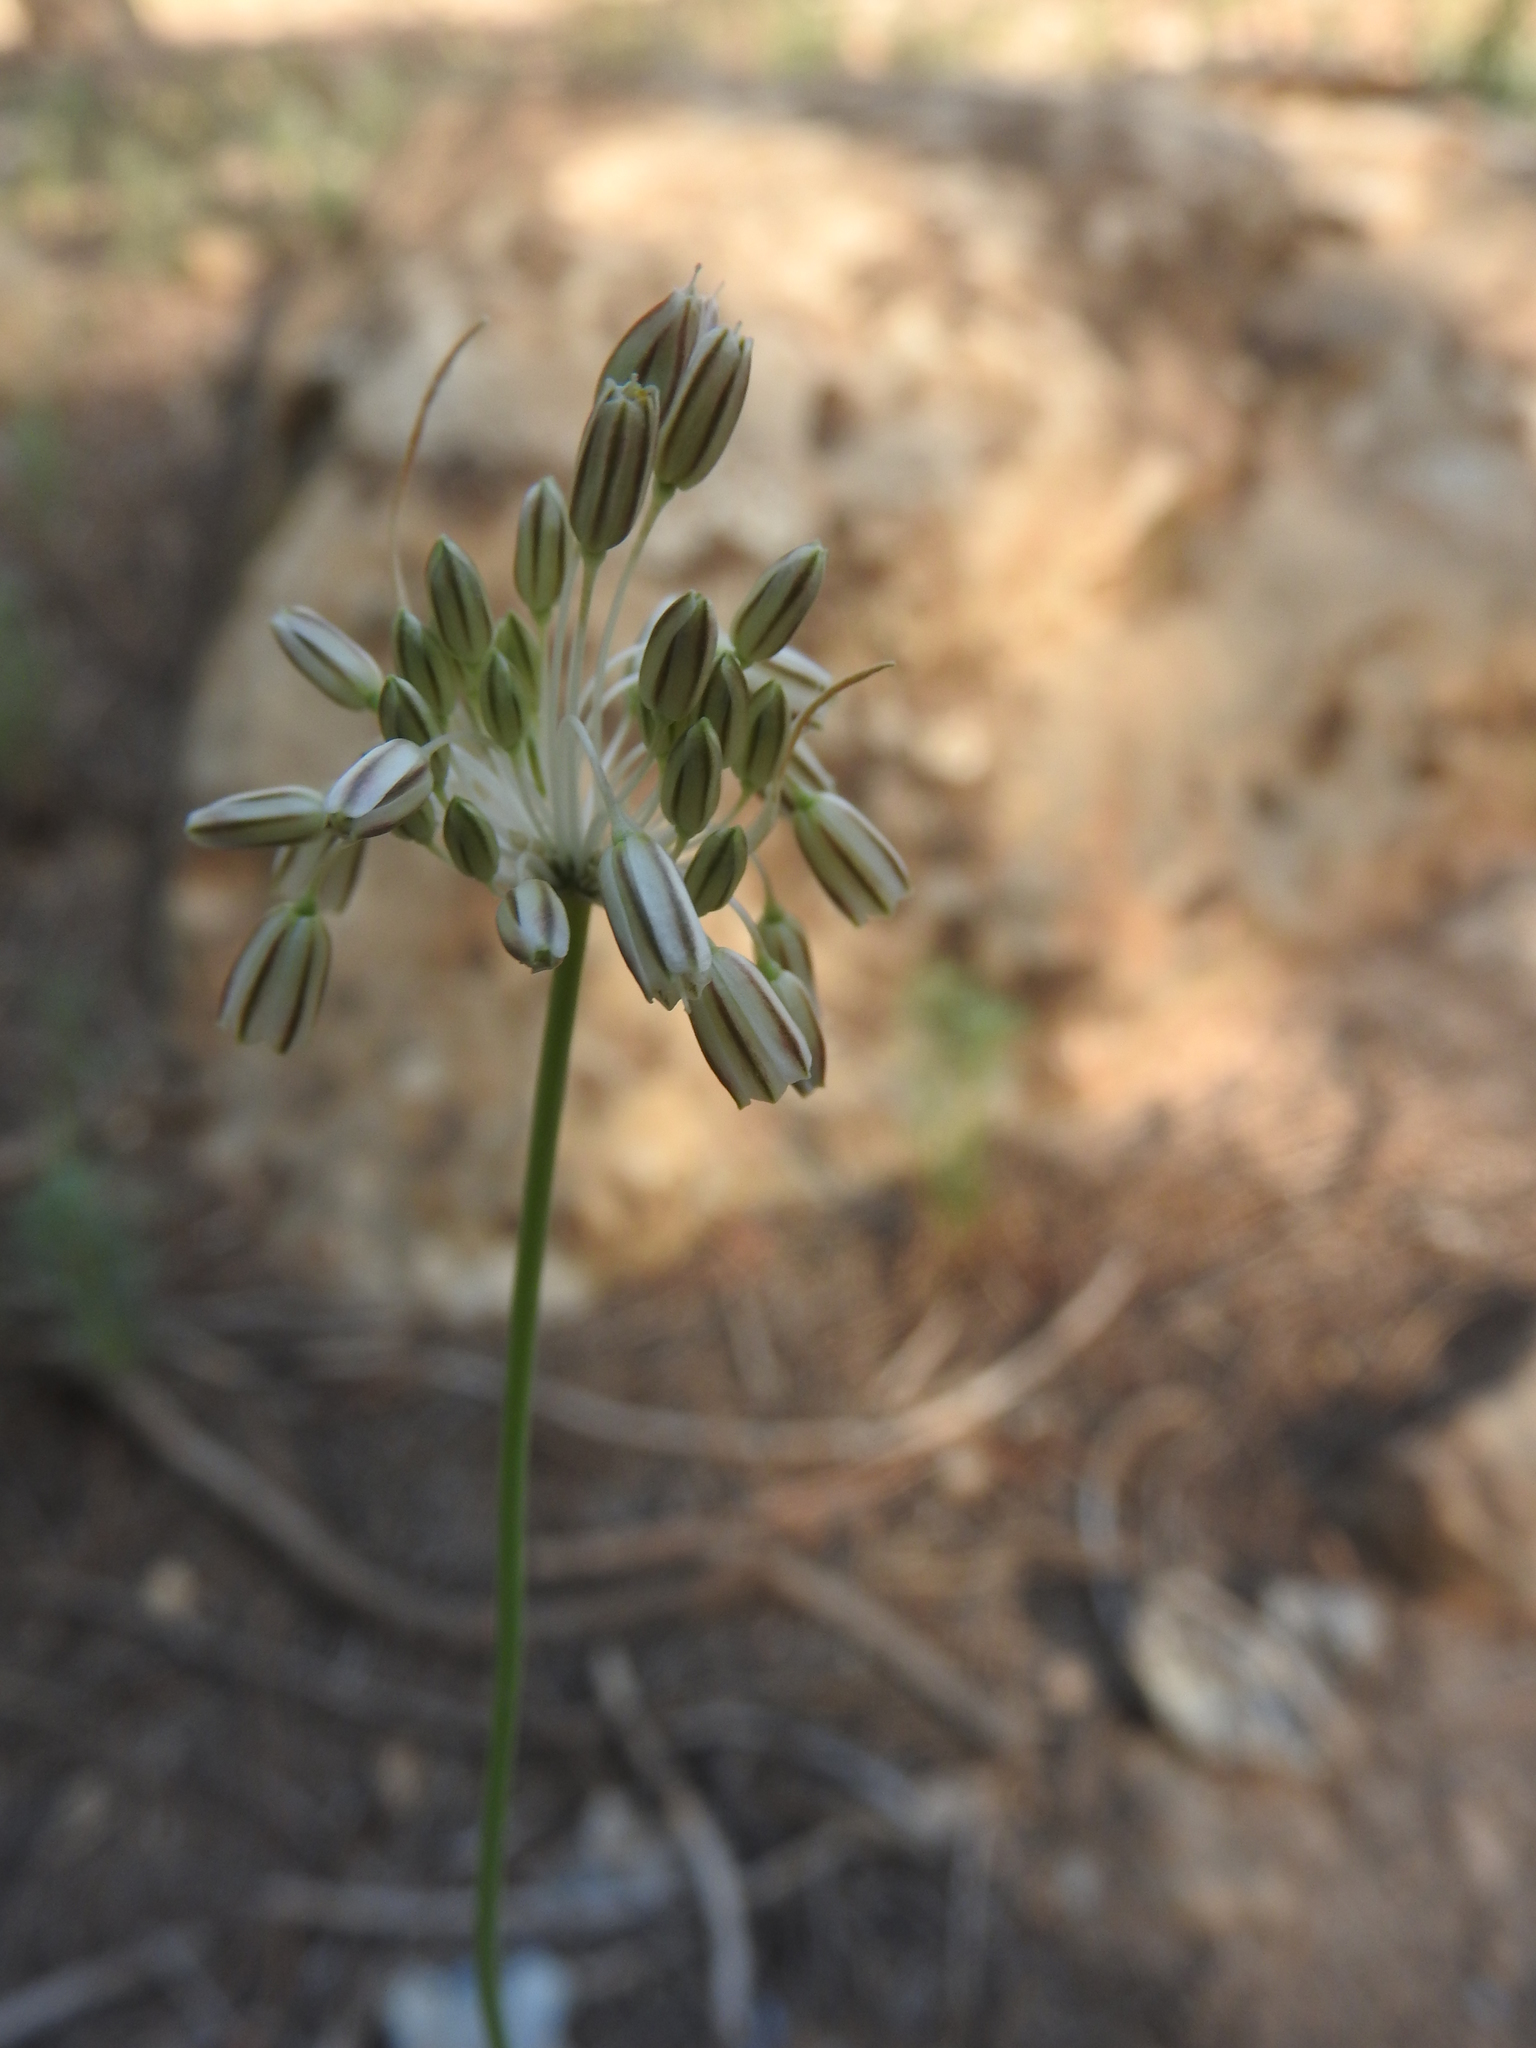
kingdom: Plantae
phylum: Tracheophyta
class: Liliopsida
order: Asparagales
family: Amaryllidaceae
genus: Allium
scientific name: Allium litardierei
